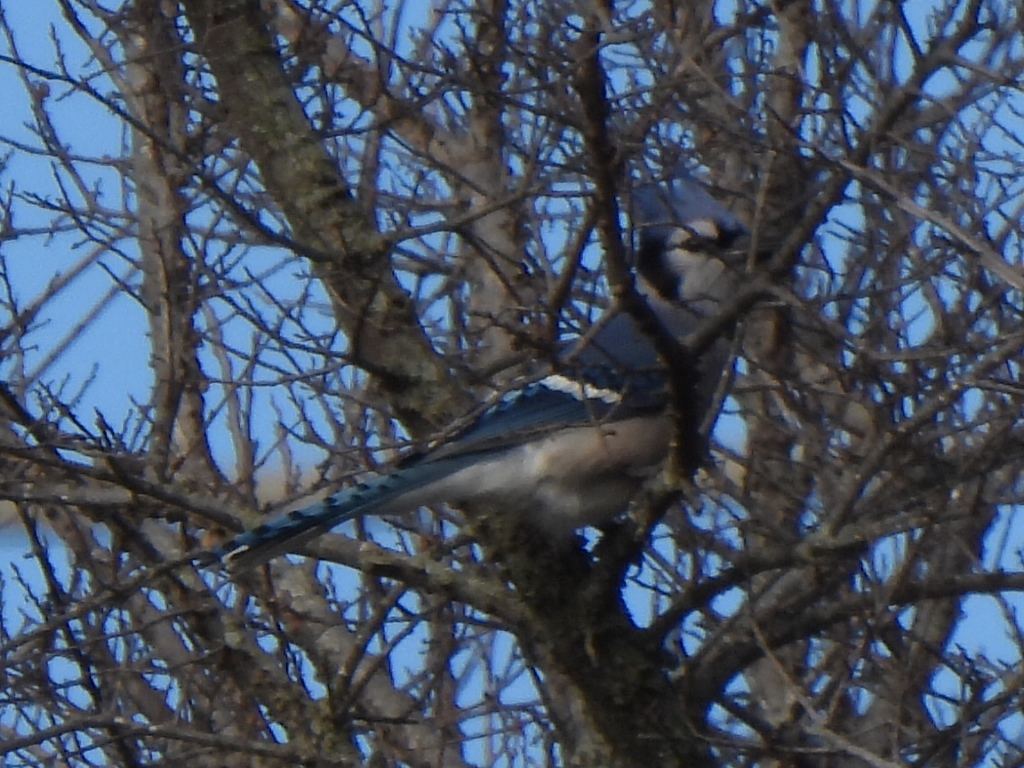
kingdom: Animalia
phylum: Chordata
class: Aves
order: Passeriformes
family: Corvidae
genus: Cyanocitta
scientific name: Cyanocitta cristata
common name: Blue jay
